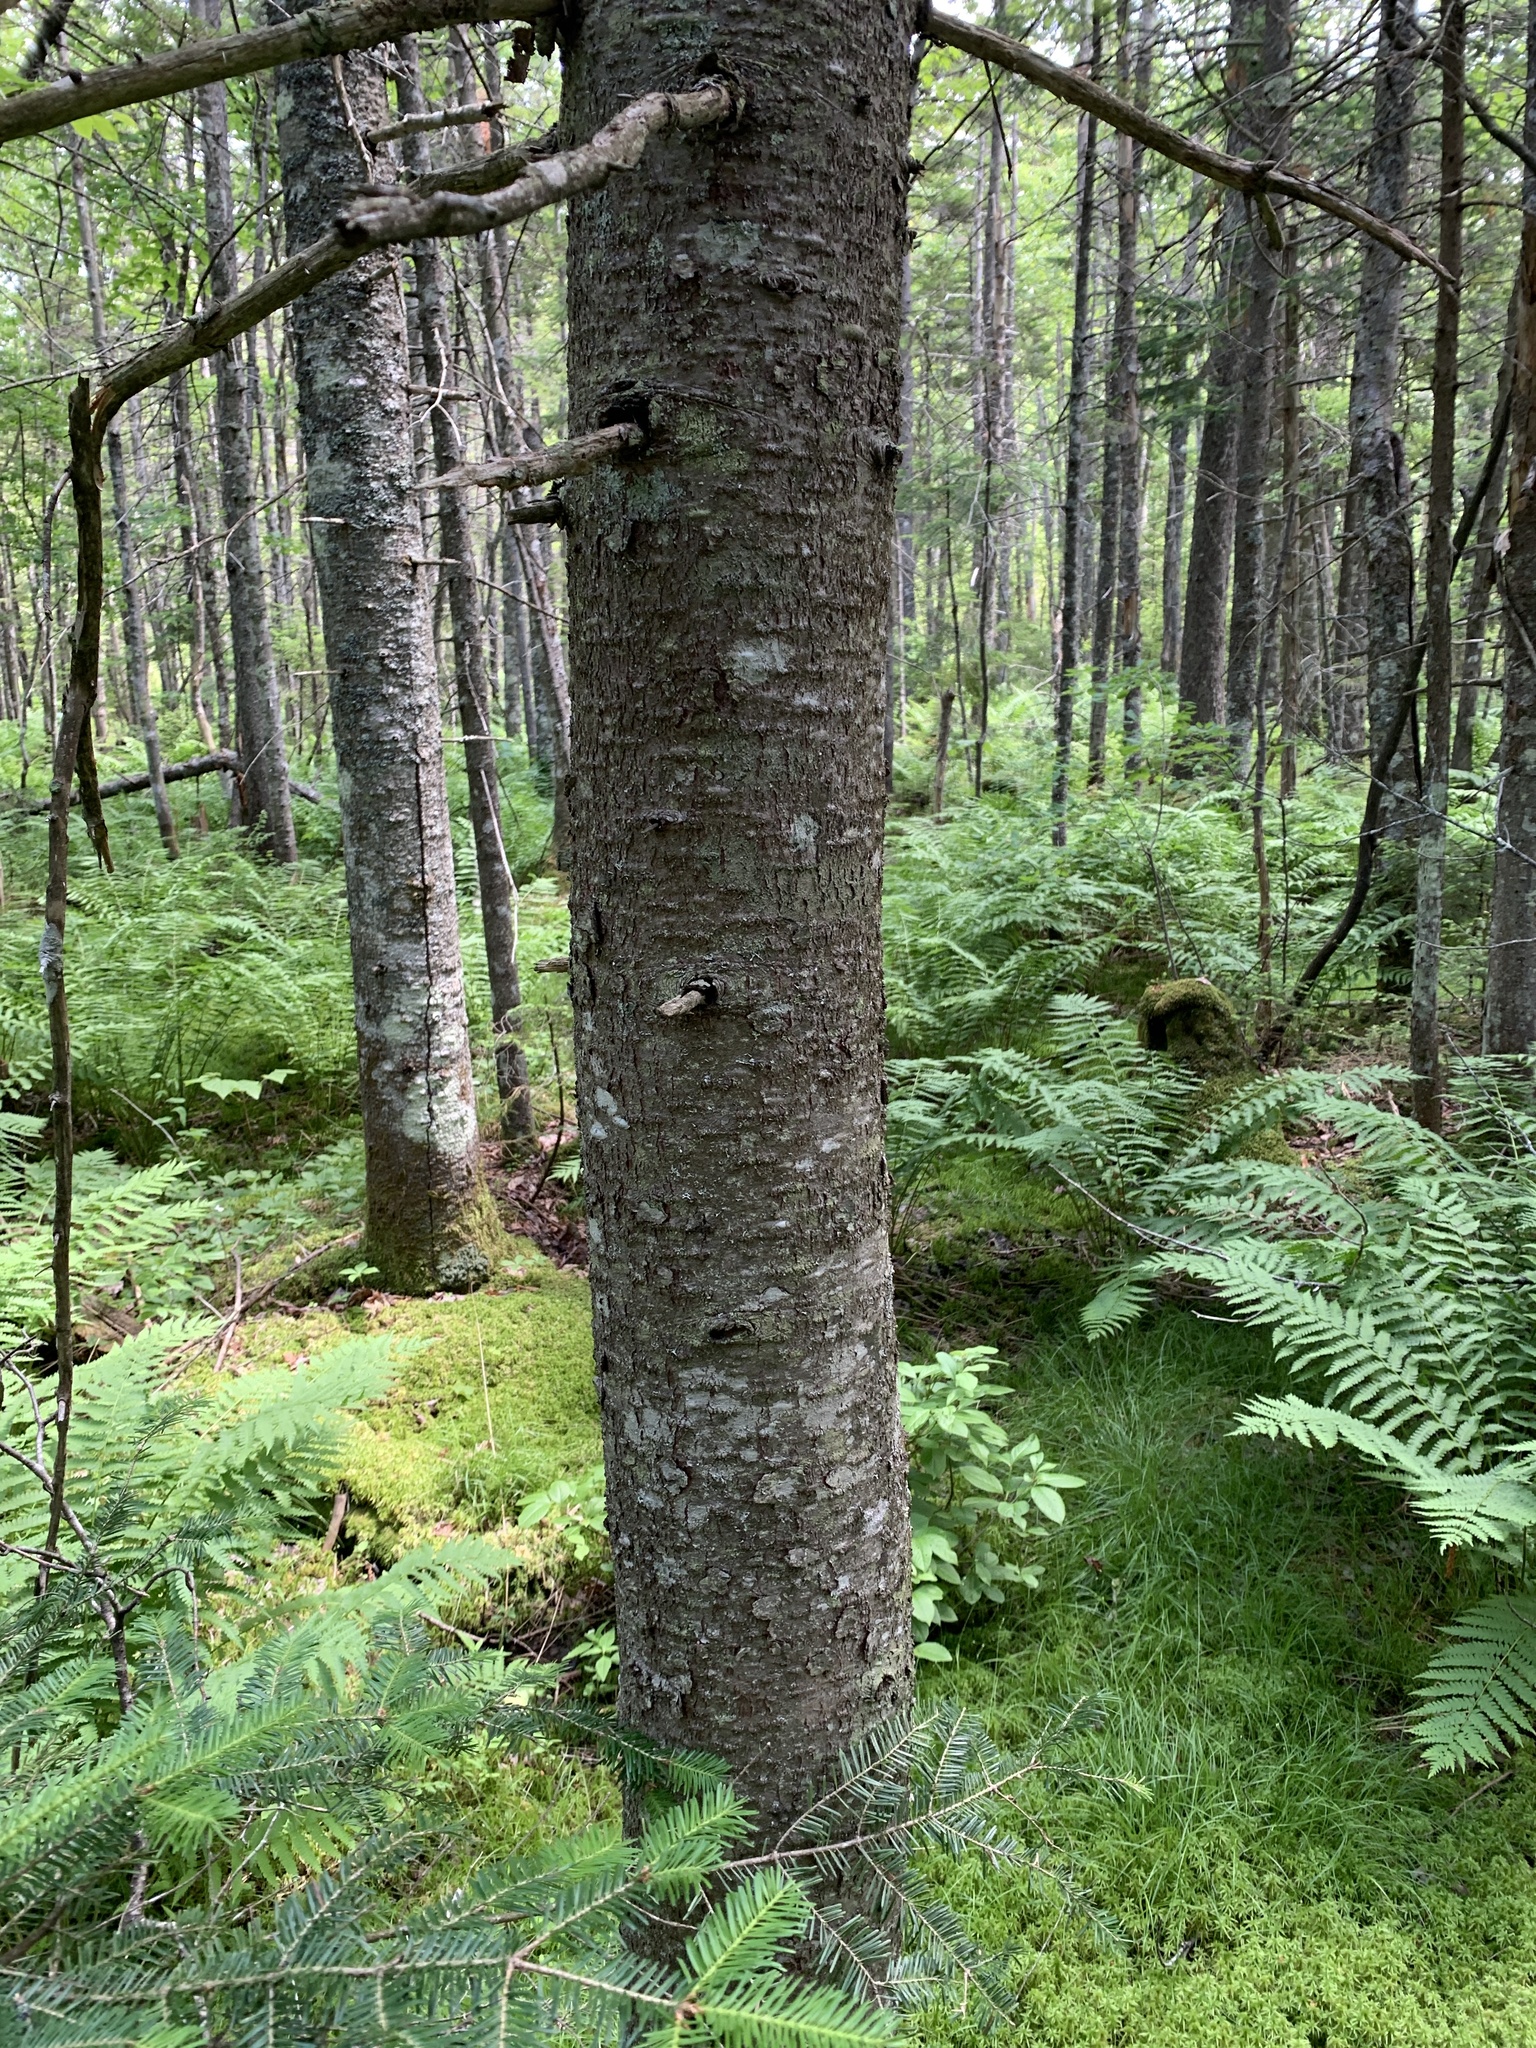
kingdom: Plantae
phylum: Tracheophyta
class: Pinopsida
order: Pinales
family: Pinaceae
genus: Abies
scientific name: Abies balsamea
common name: Balsam fir
